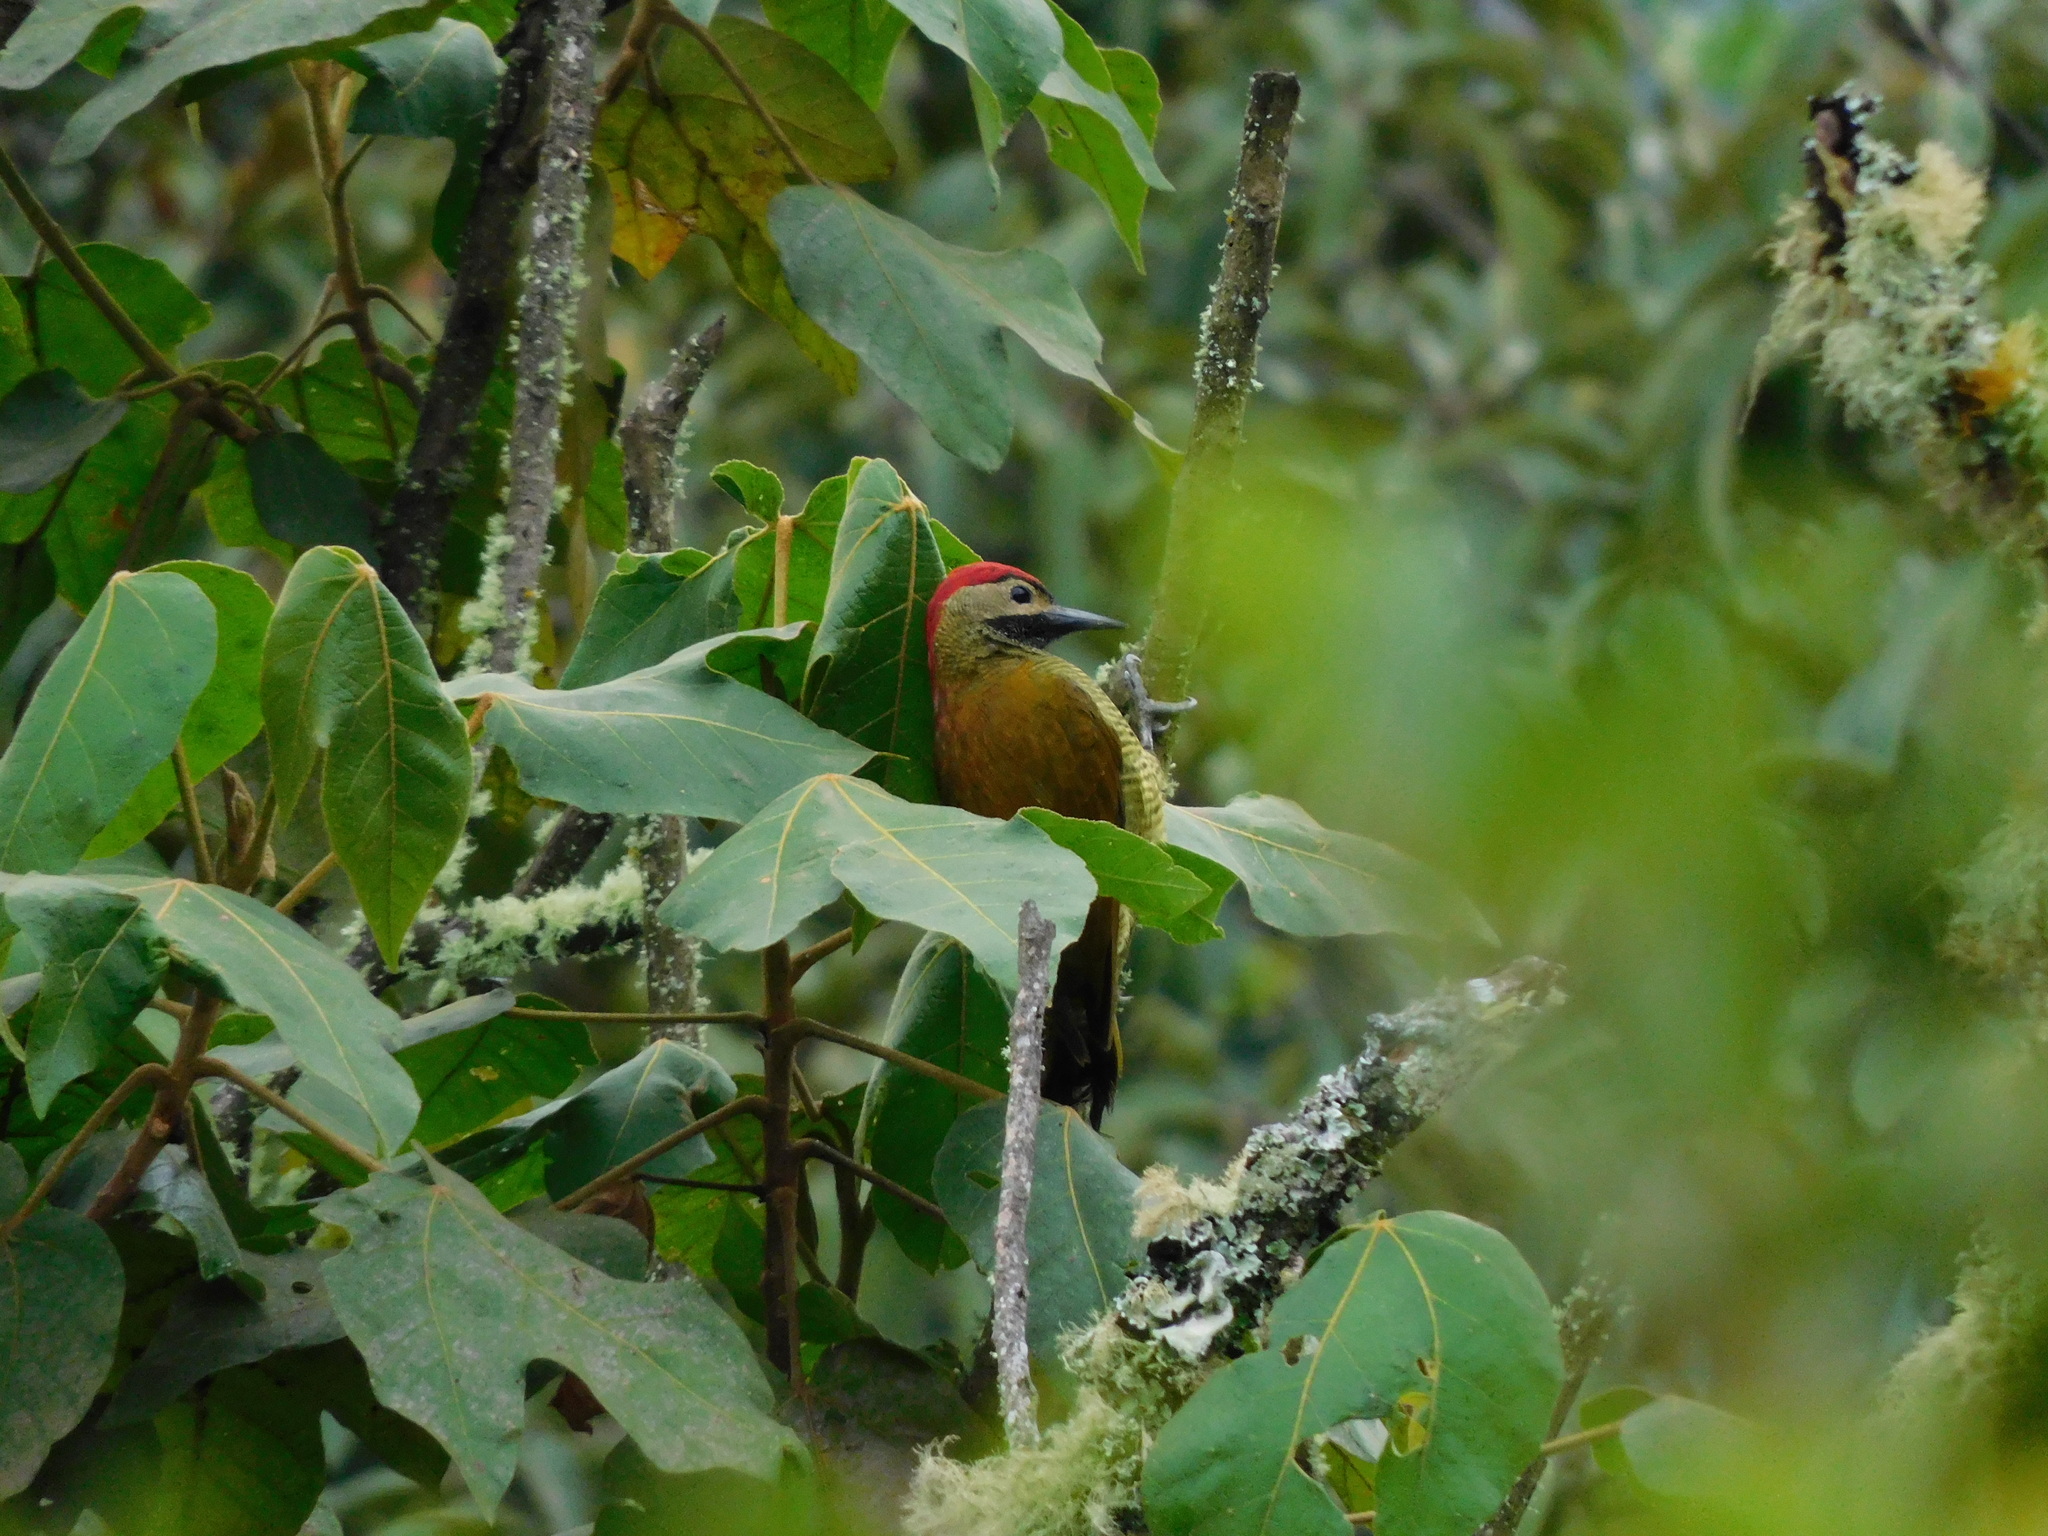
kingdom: Animalia
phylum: Chordata
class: Aves
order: Piciformes
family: Picidae
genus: Colaptes
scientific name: Colaptes rubiginosus
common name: Golden-olive woodpecker
